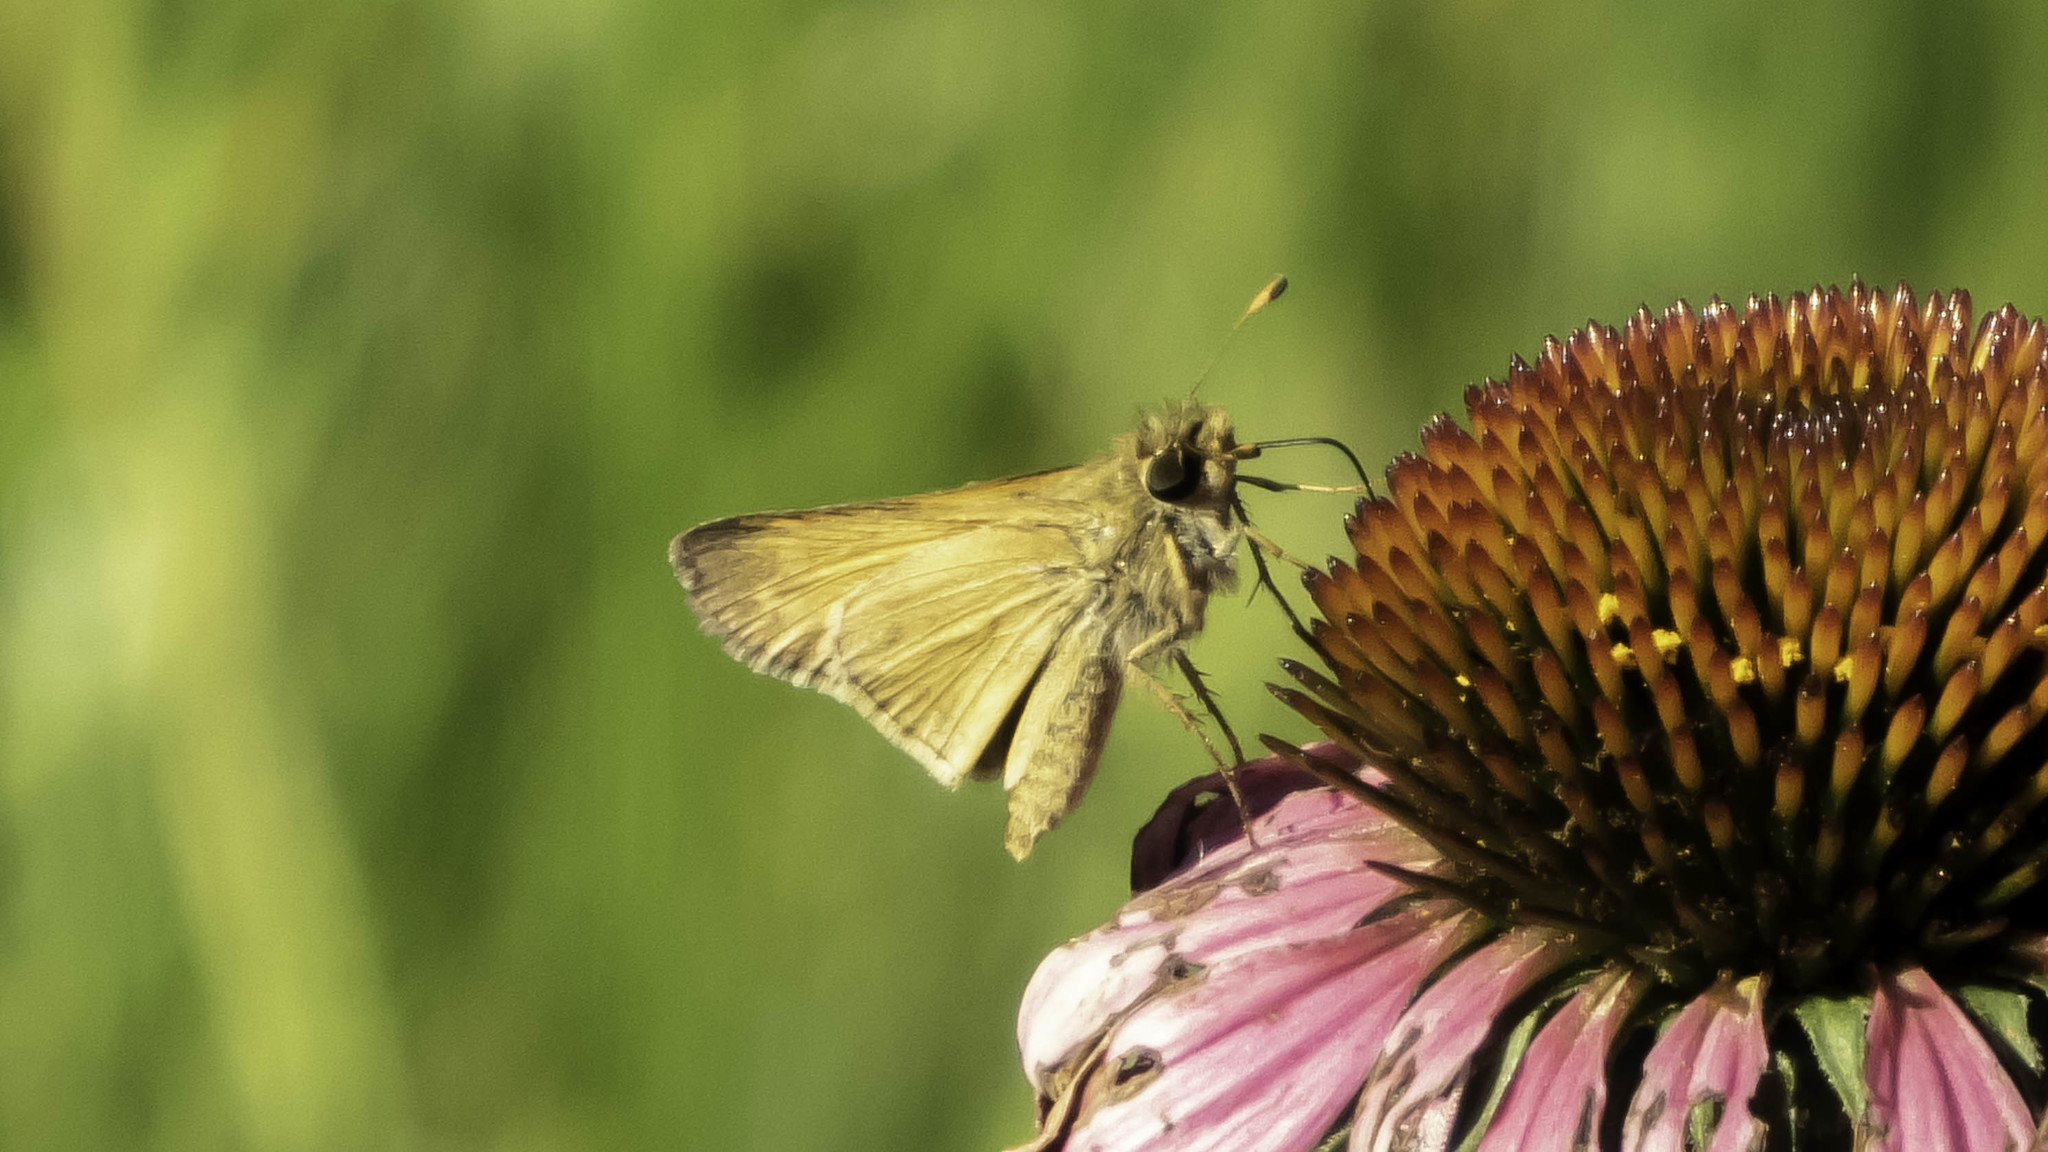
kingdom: Animalia
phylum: Arthropoda
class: Insecta
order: Lepidoptera
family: Hesperiidae
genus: Atalopedes
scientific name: Atalopedes
